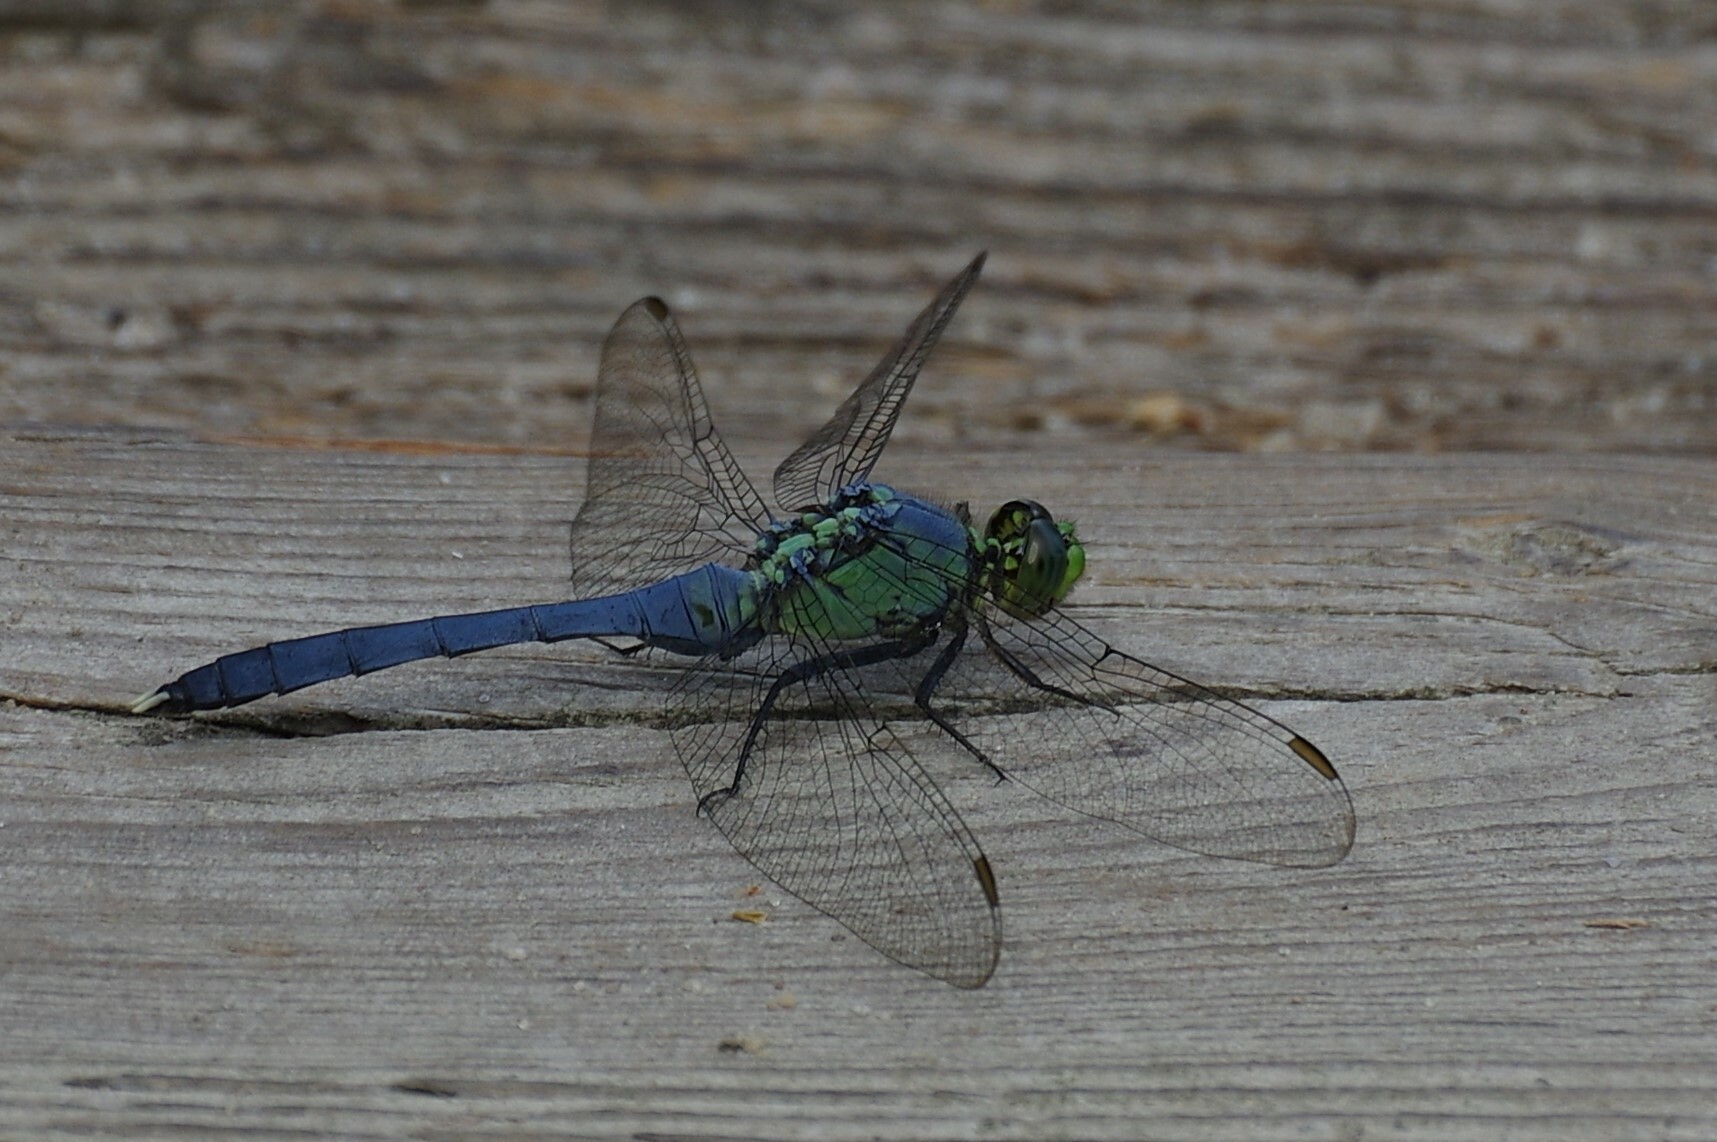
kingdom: Animalia
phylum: Arthropoda
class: Insecta
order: Odonata
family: Libellulidae
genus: Erythemis
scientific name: Erythemis simplicicollis
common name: Eastern pondhawk
